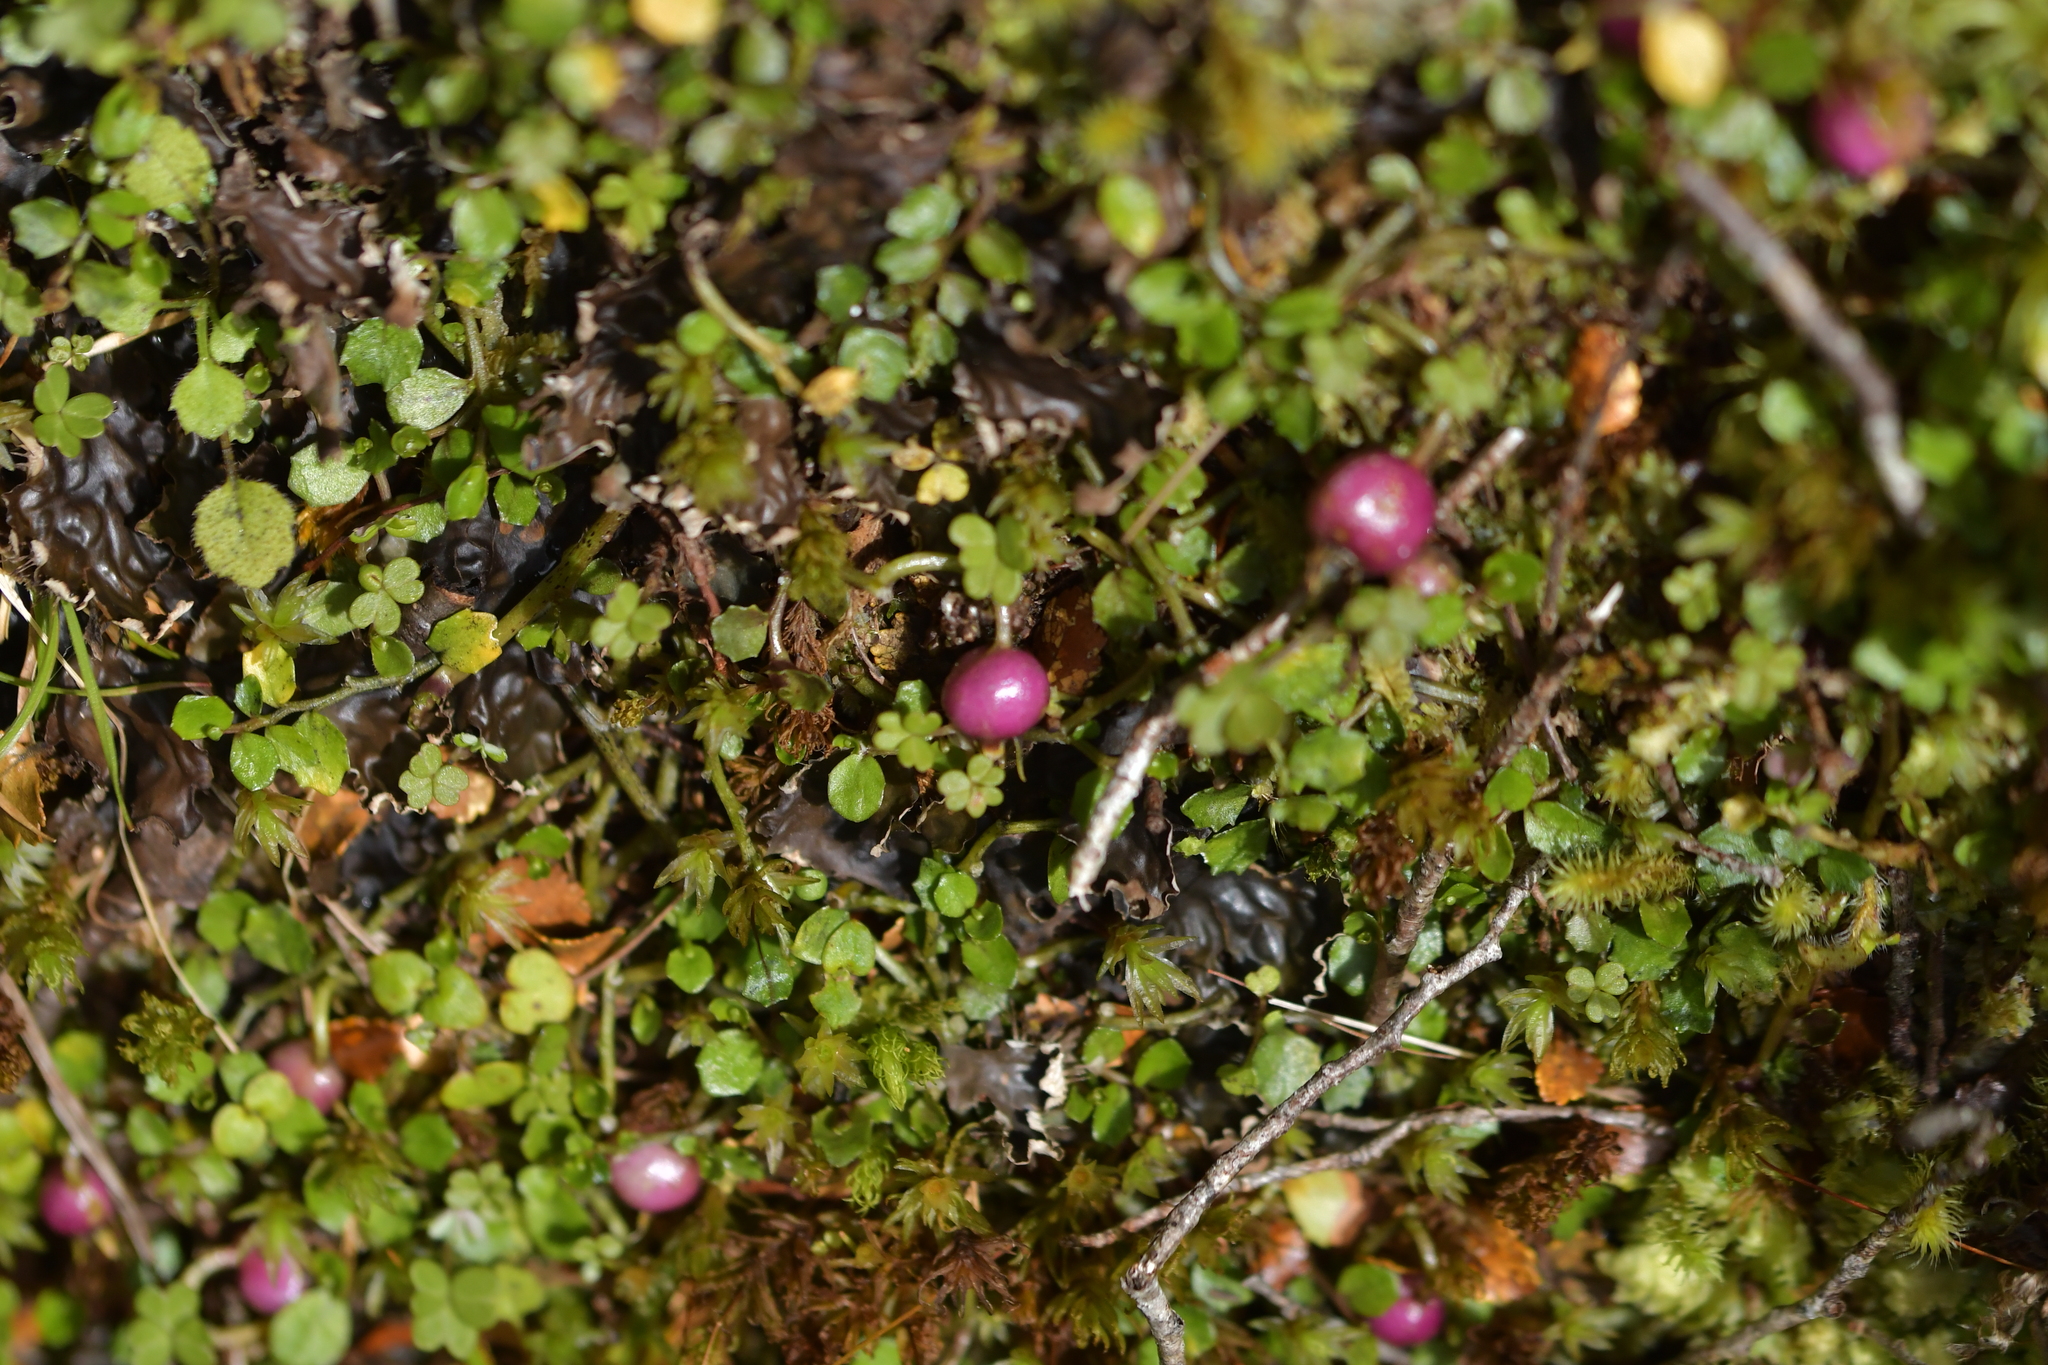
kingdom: Plantae
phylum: Tracheophyta
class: Magnoliopsida
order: Asterales
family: Campanulaceae
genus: Lobelia
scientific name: Lobelia angulata
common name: Lawn lobelia
